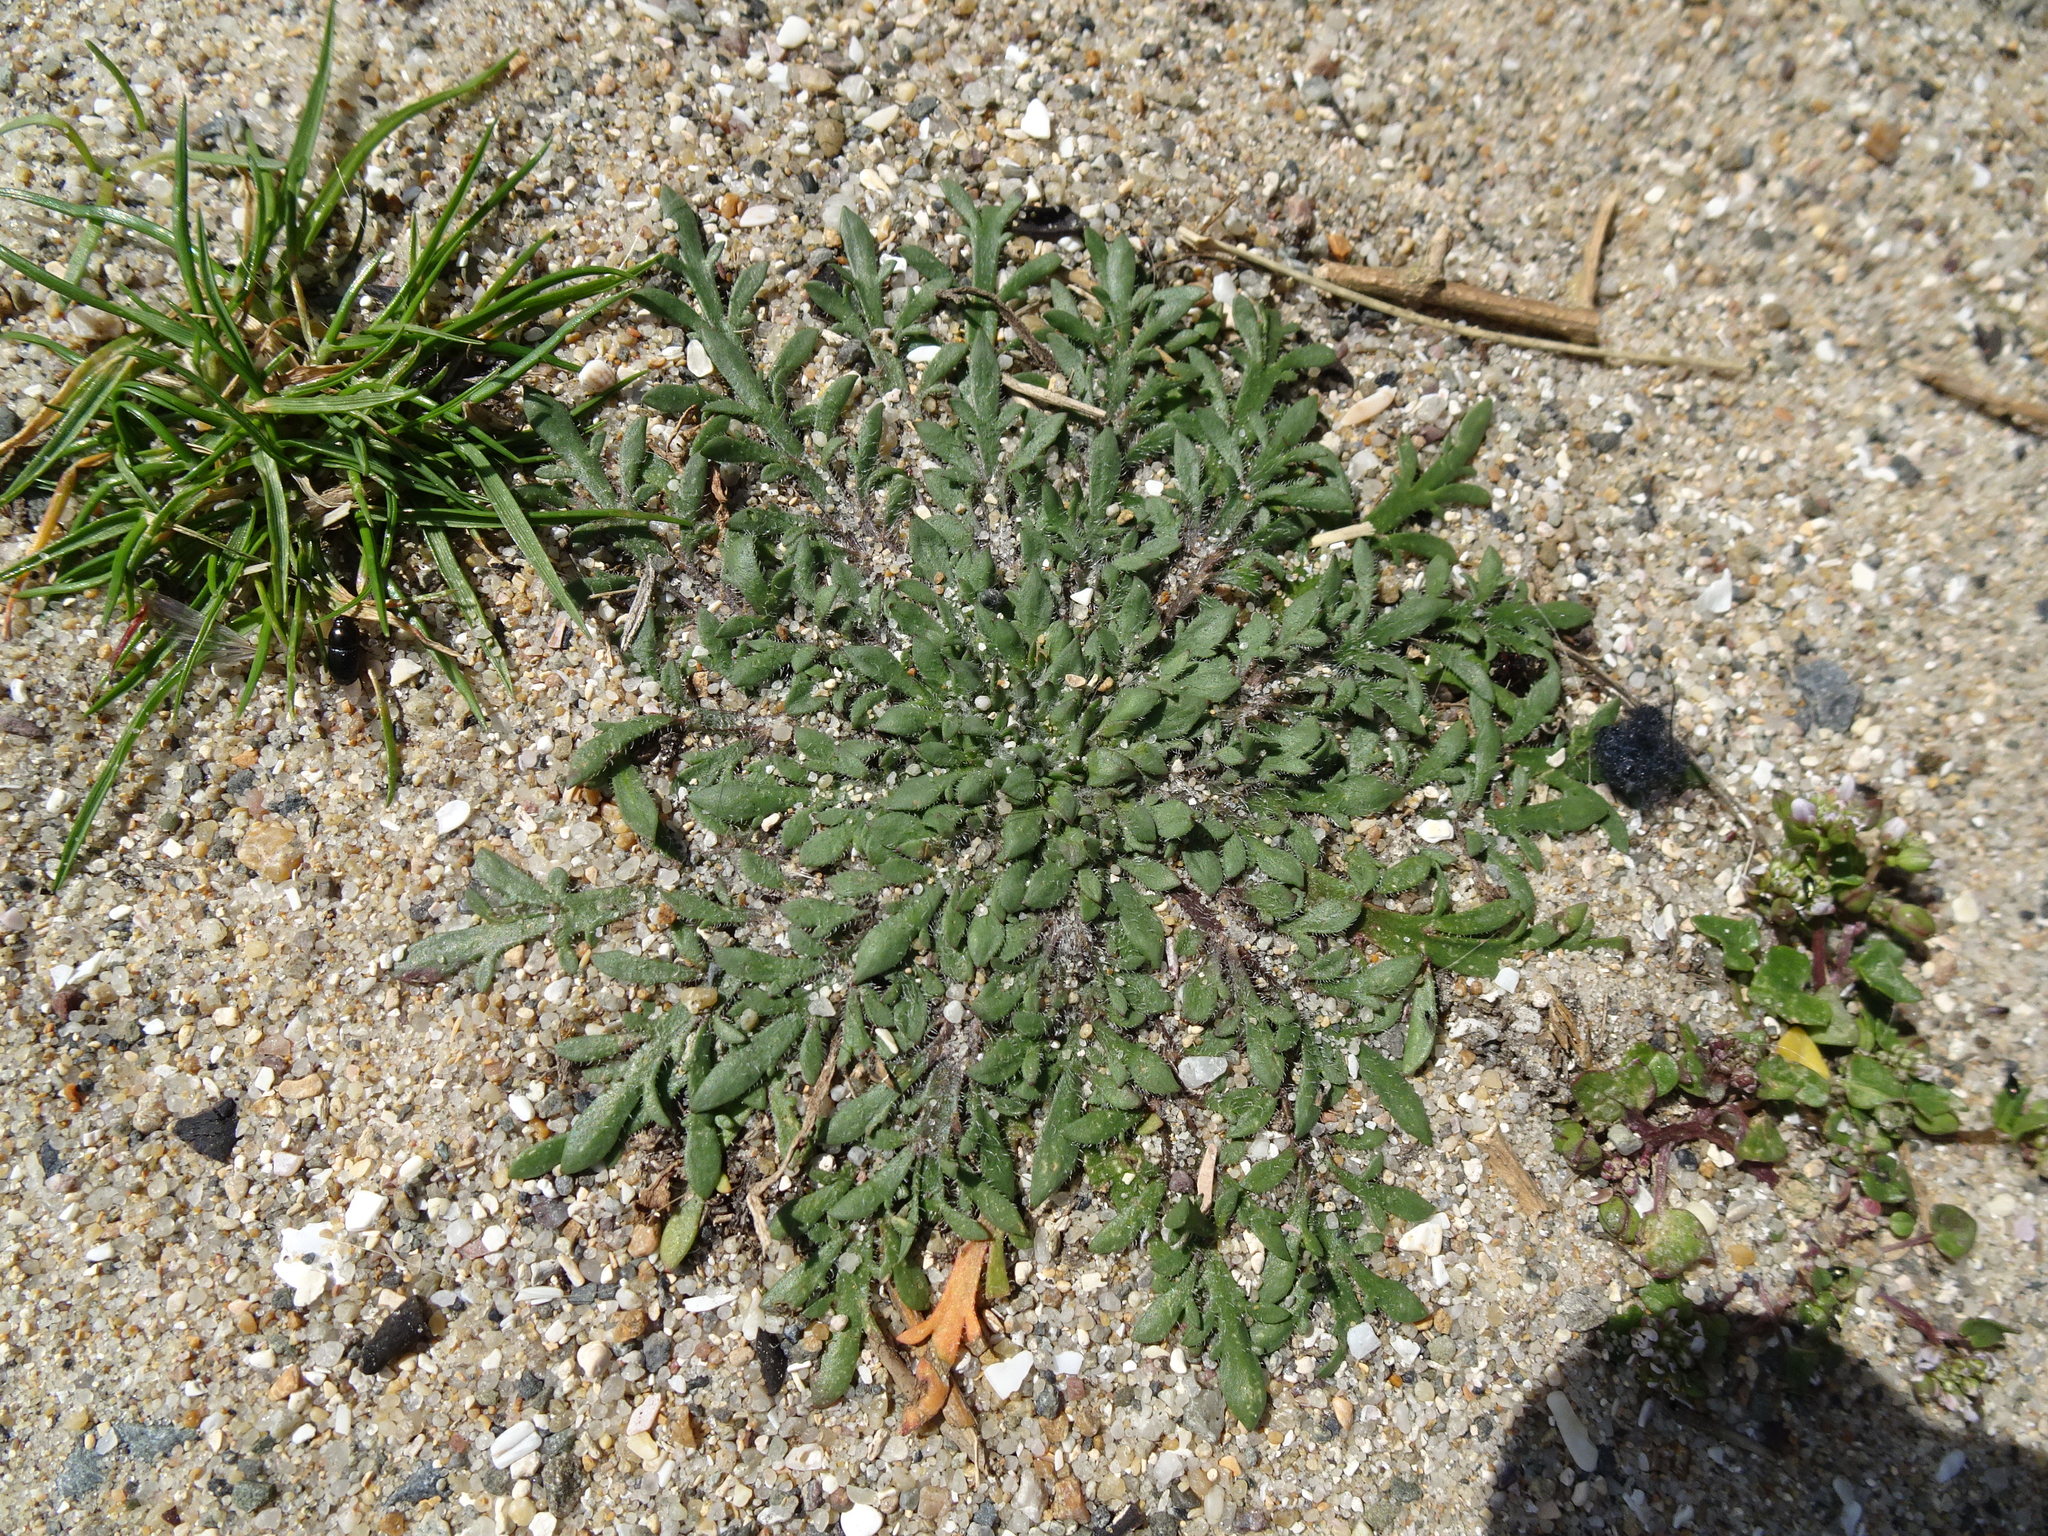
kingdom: Plantae
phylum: Tracheophyta
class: Magnoliopsida
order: Lamiales
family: Plantaginaceae
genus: Plantago
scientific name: Plantago coronopus
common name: Buck's-horn plantain
